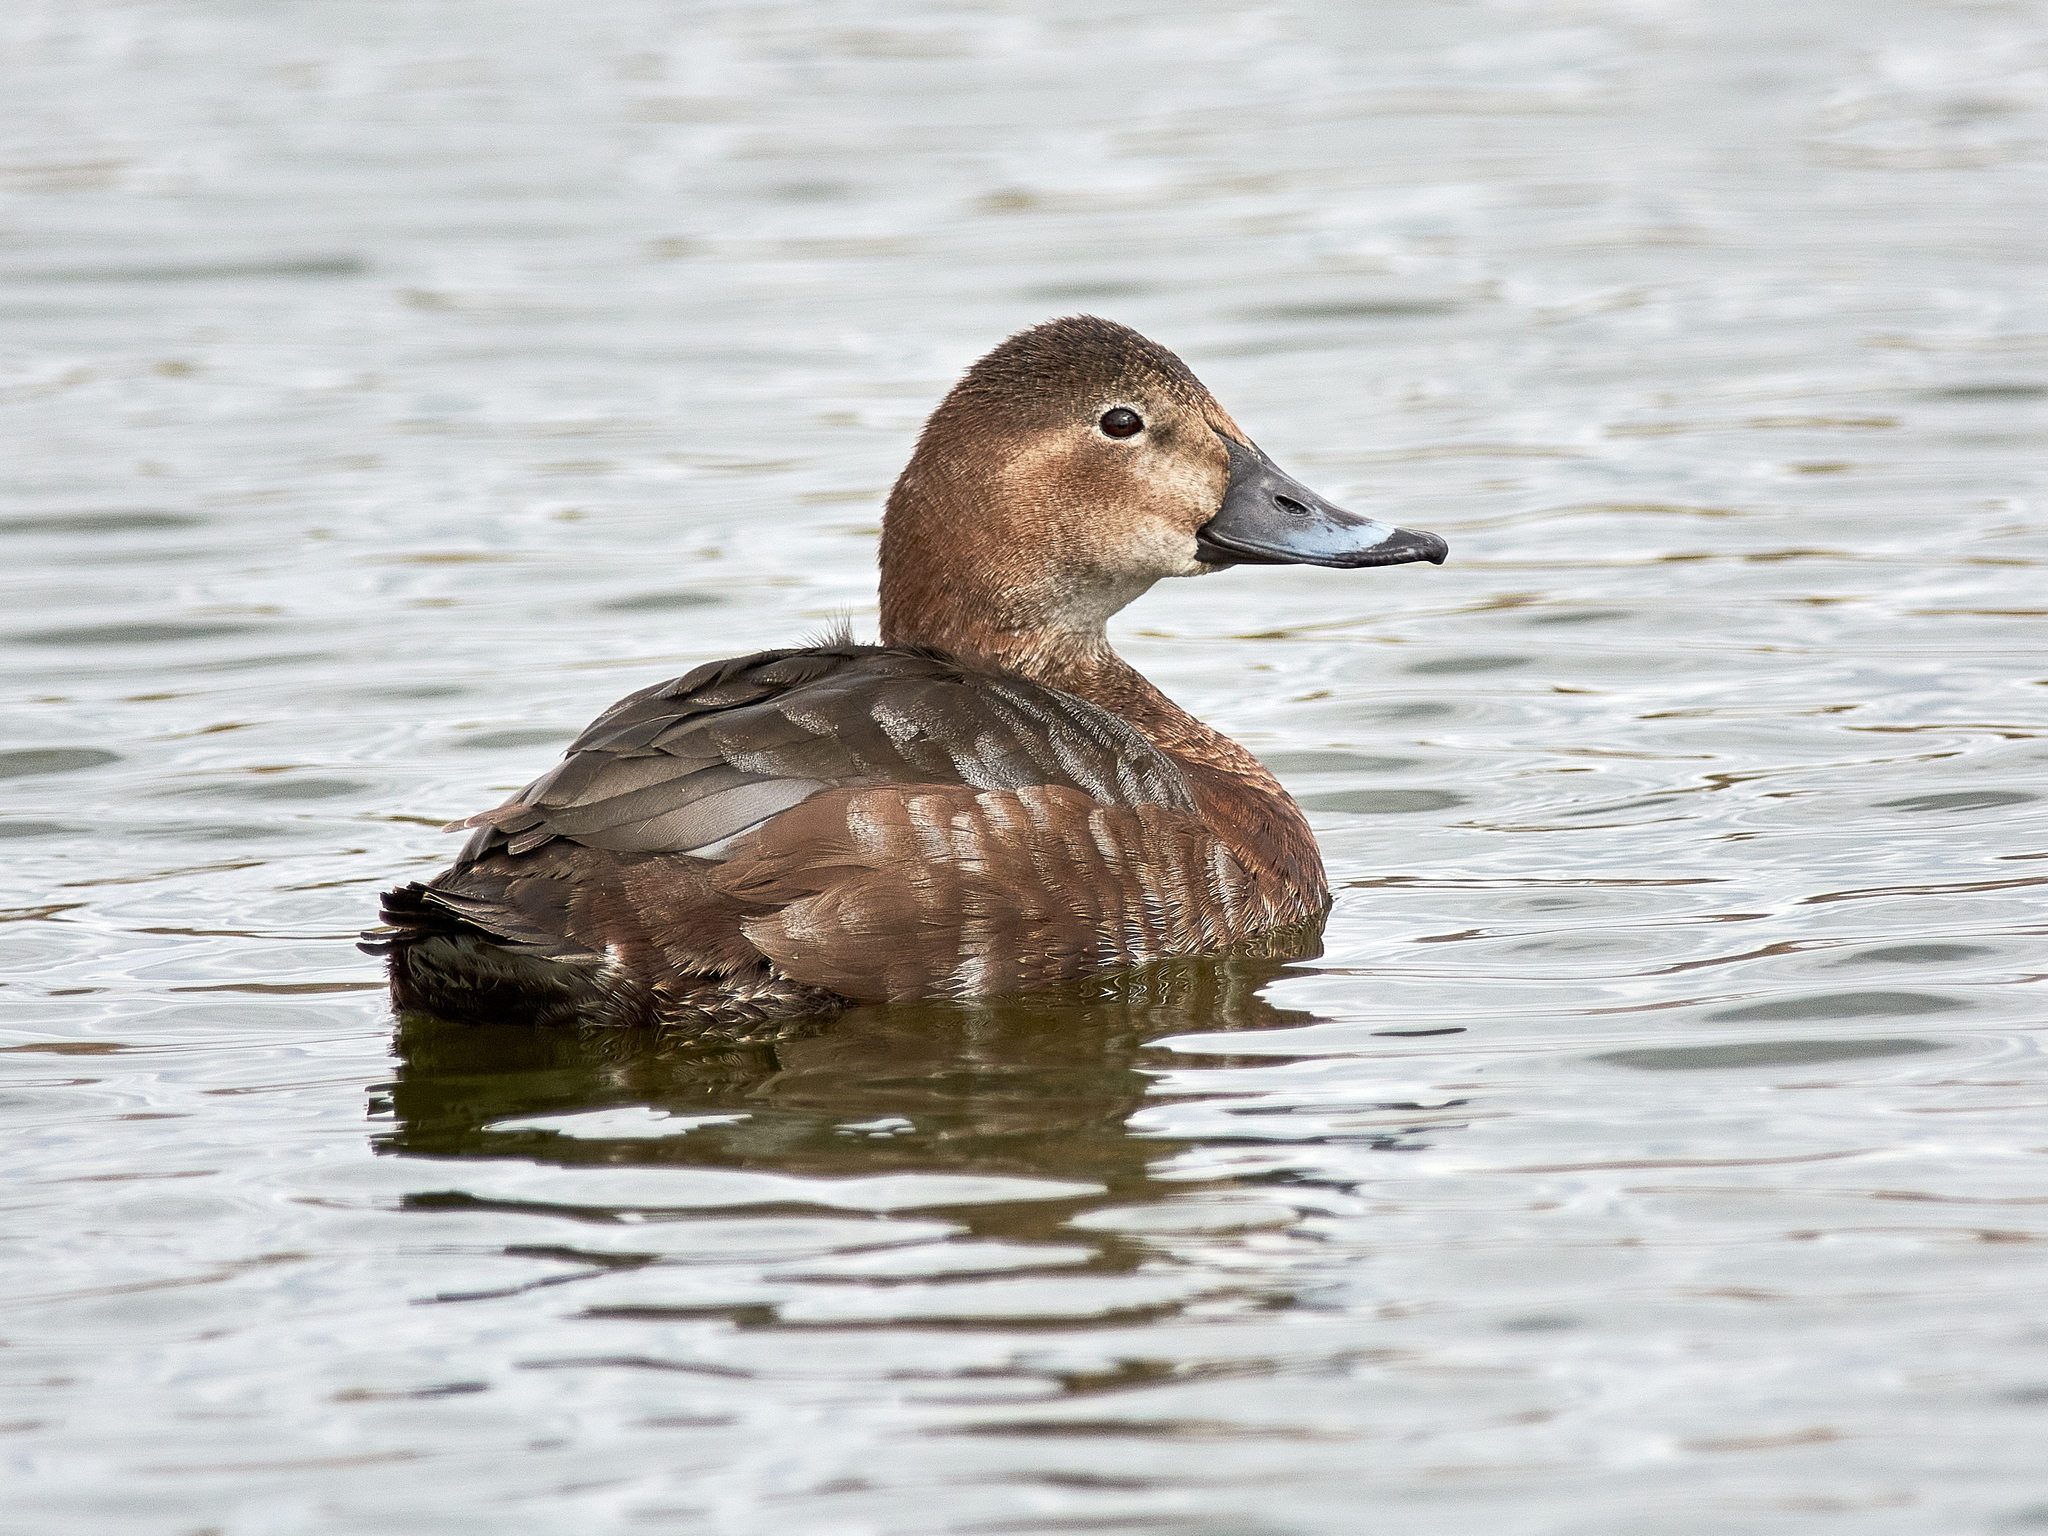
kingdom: Animalia
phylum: Chordata
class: Aves
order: Anseriformes
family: Anatidae
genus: Aythya
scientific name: Aythya ferina
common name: Common pochard
